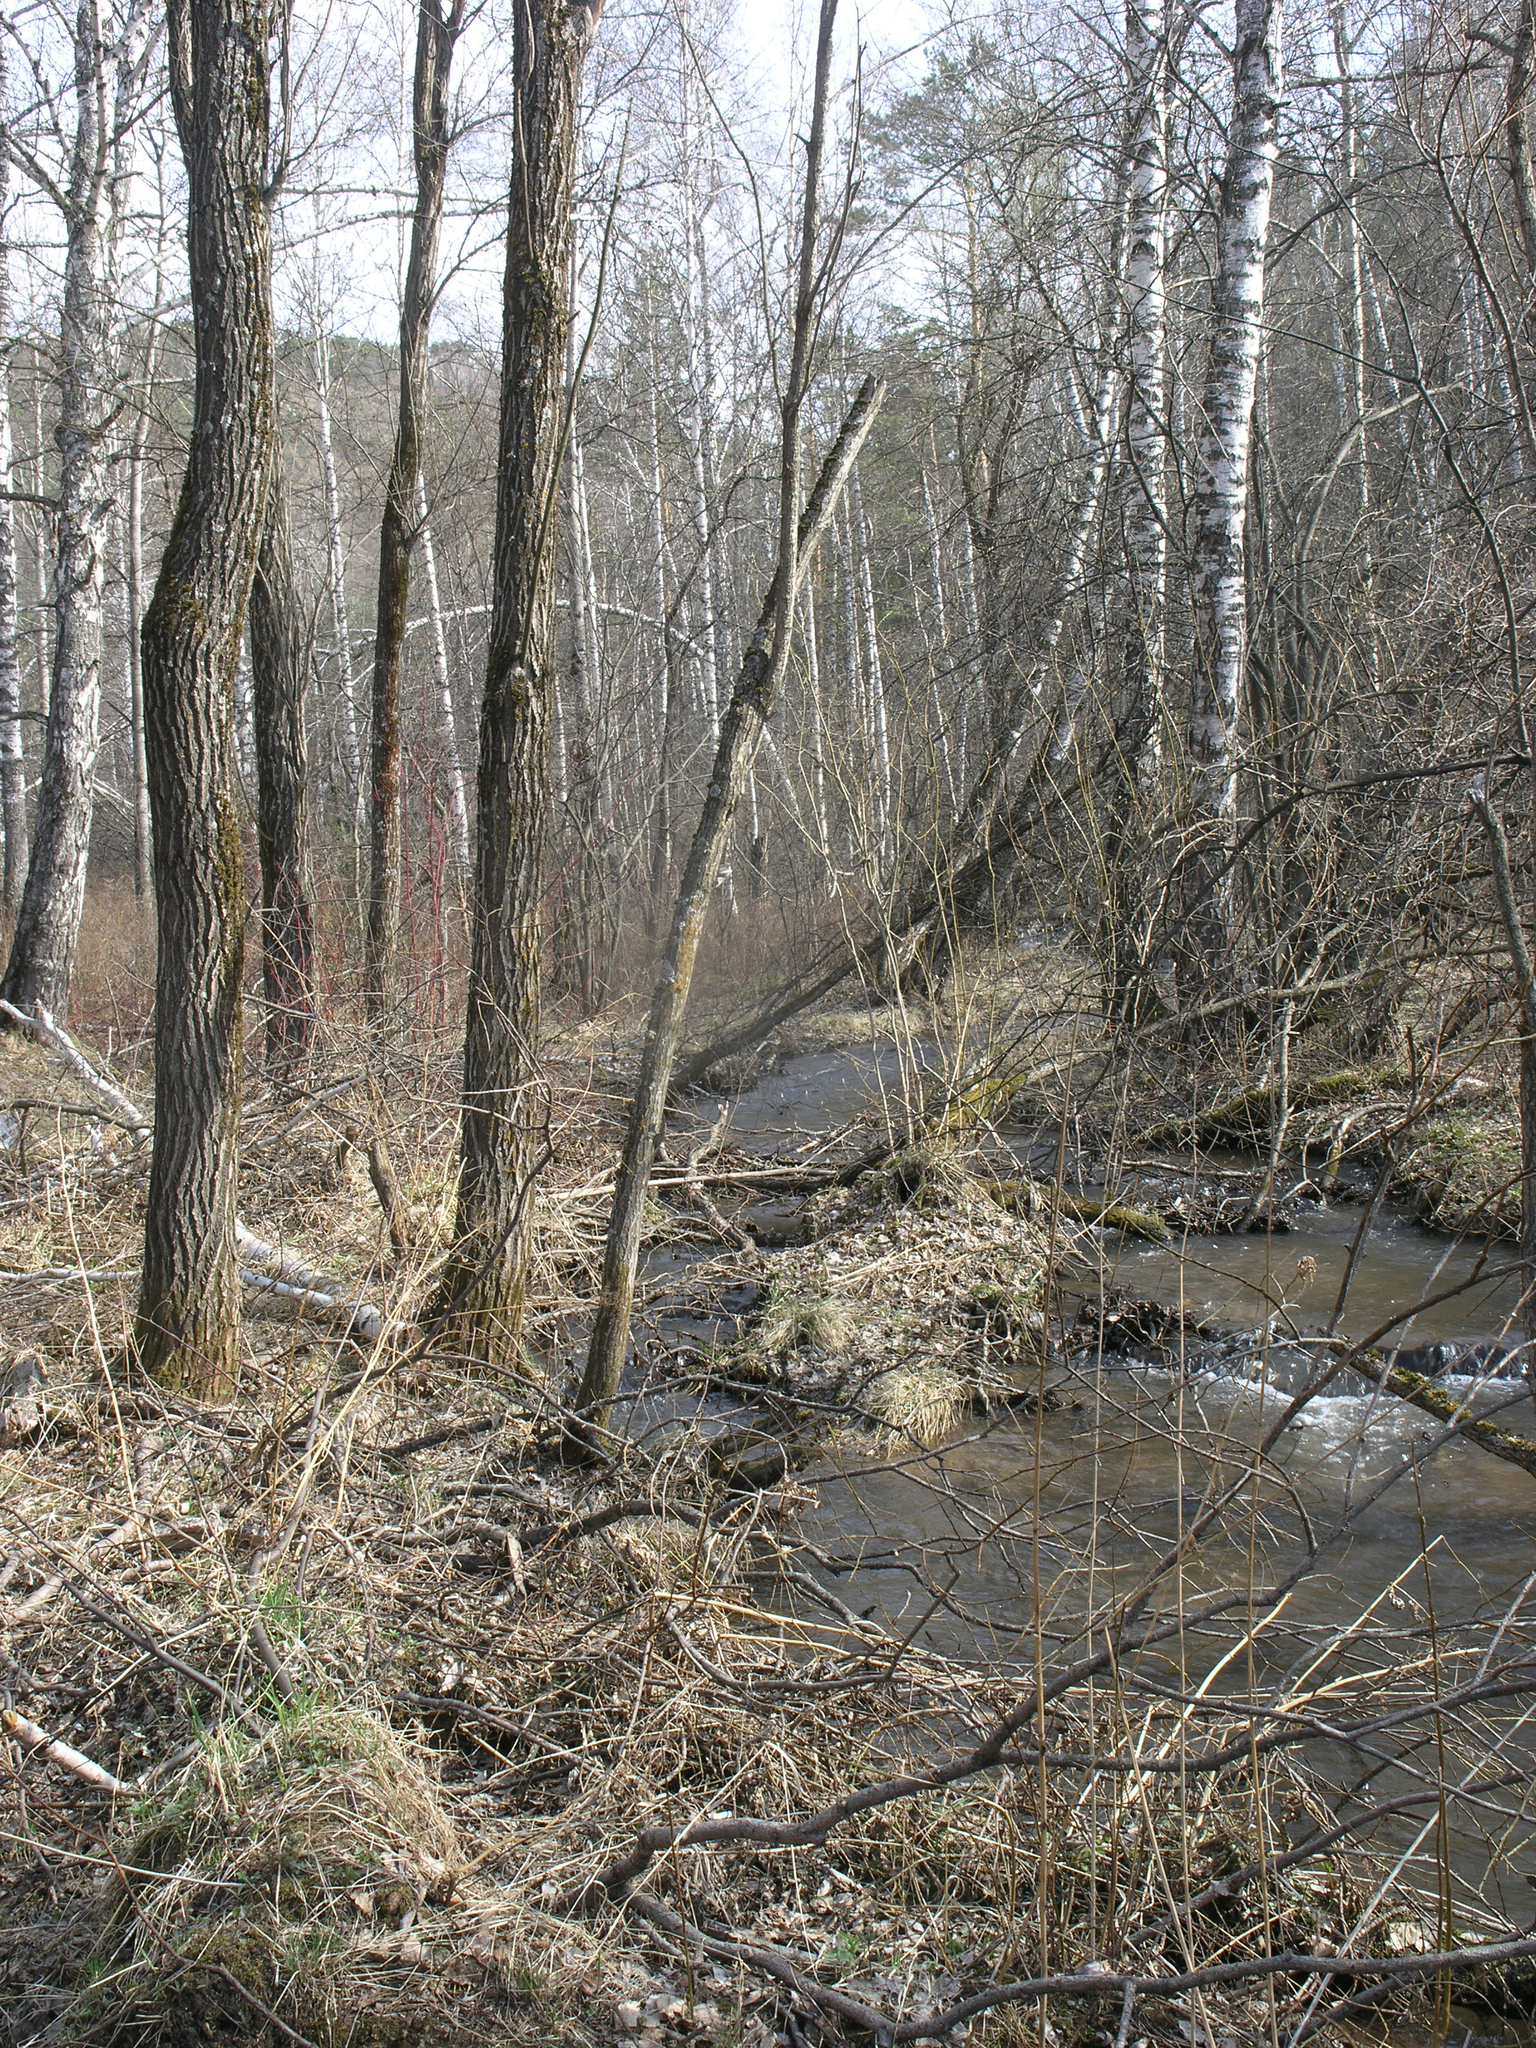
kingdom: Plantae
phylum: Tracheophyta
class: Magnoliopsida
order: Malpighiales
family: Salicaceae
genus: Populus
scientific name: Populus tremula
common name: European aspen
